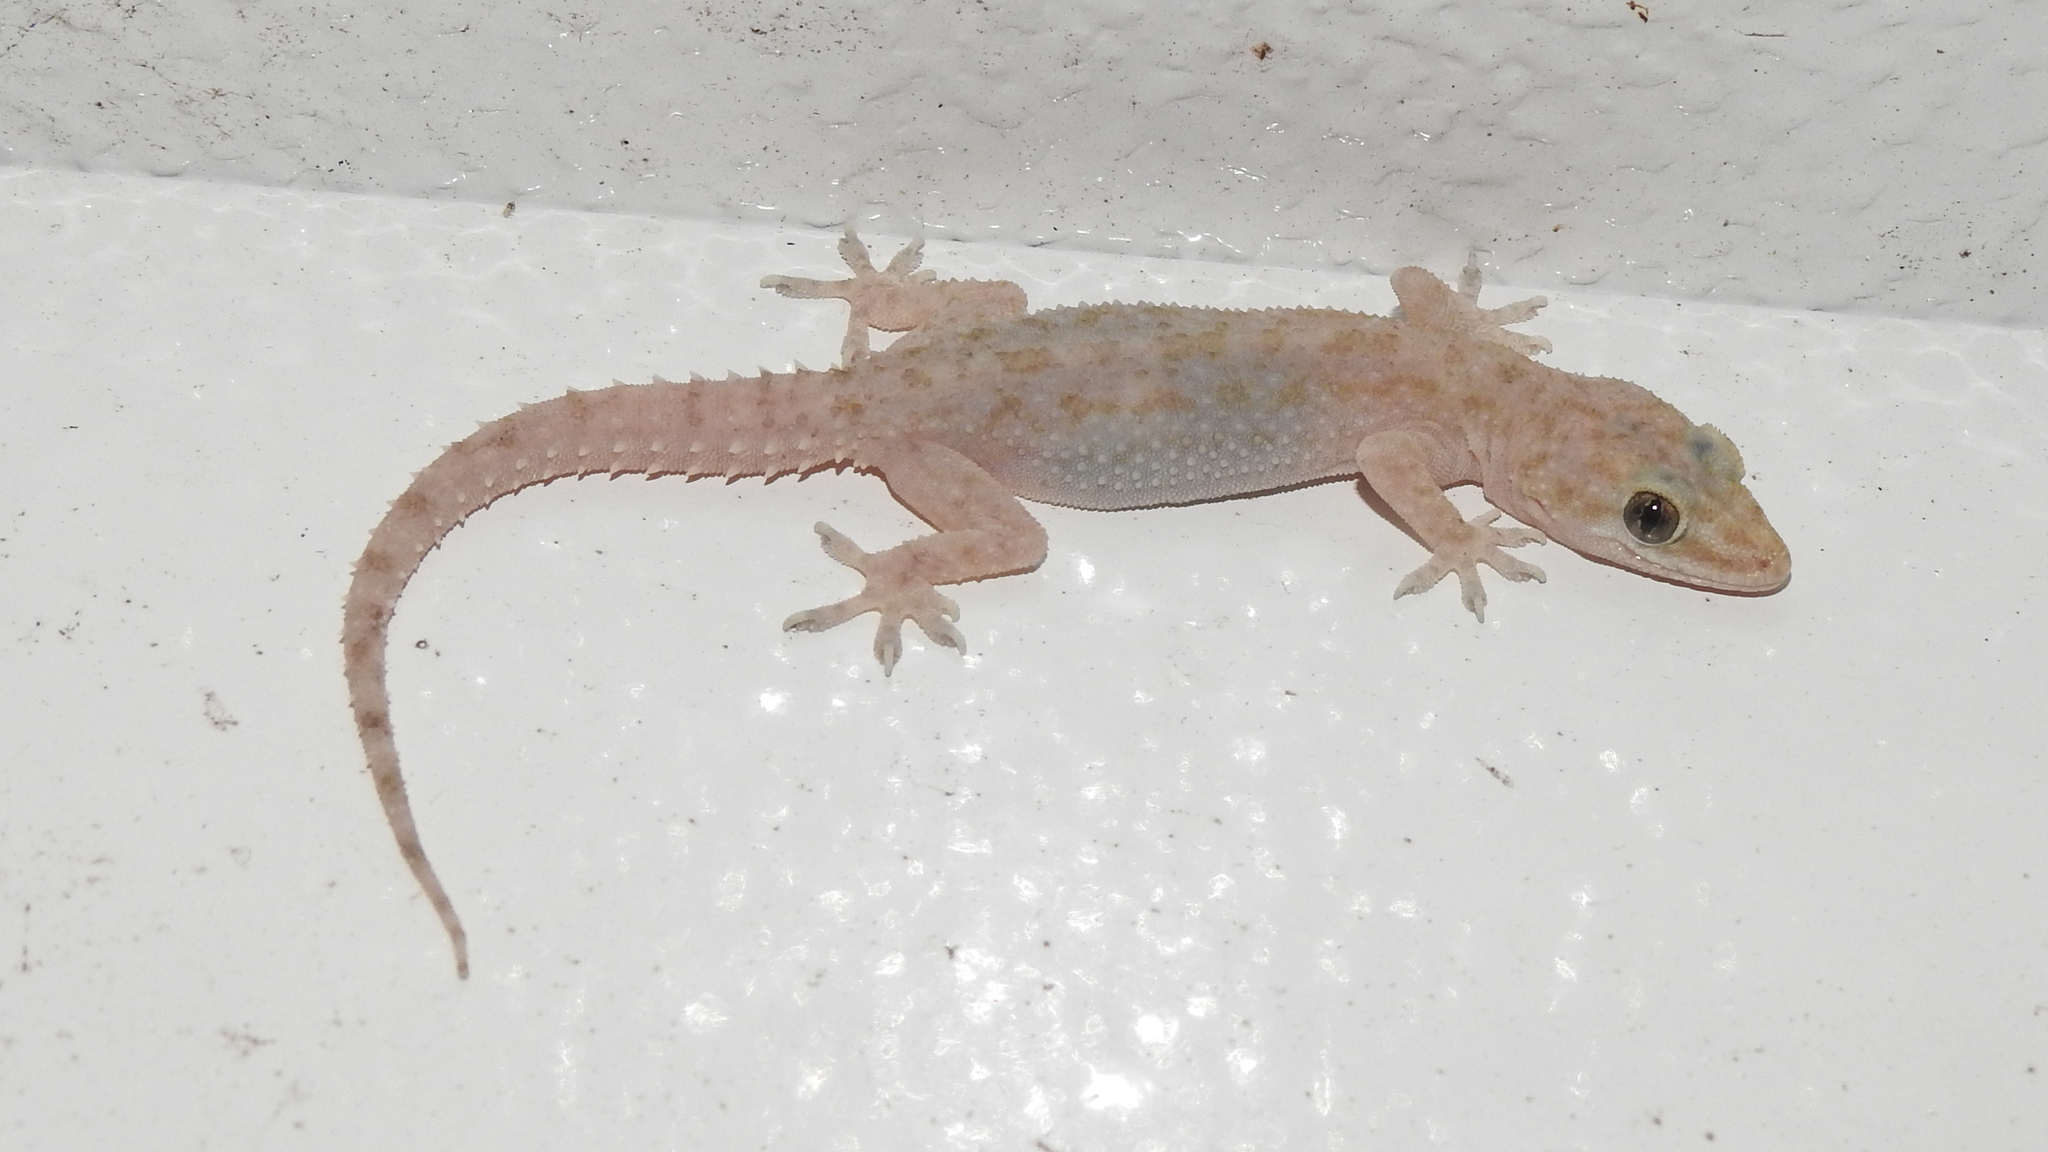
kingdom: Animalia
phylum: Chordata
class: Squamata
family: Gekkonidae
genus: Hemidactylus
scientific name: Hemidactylus parvimaculatus
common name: Spotted house gecko
